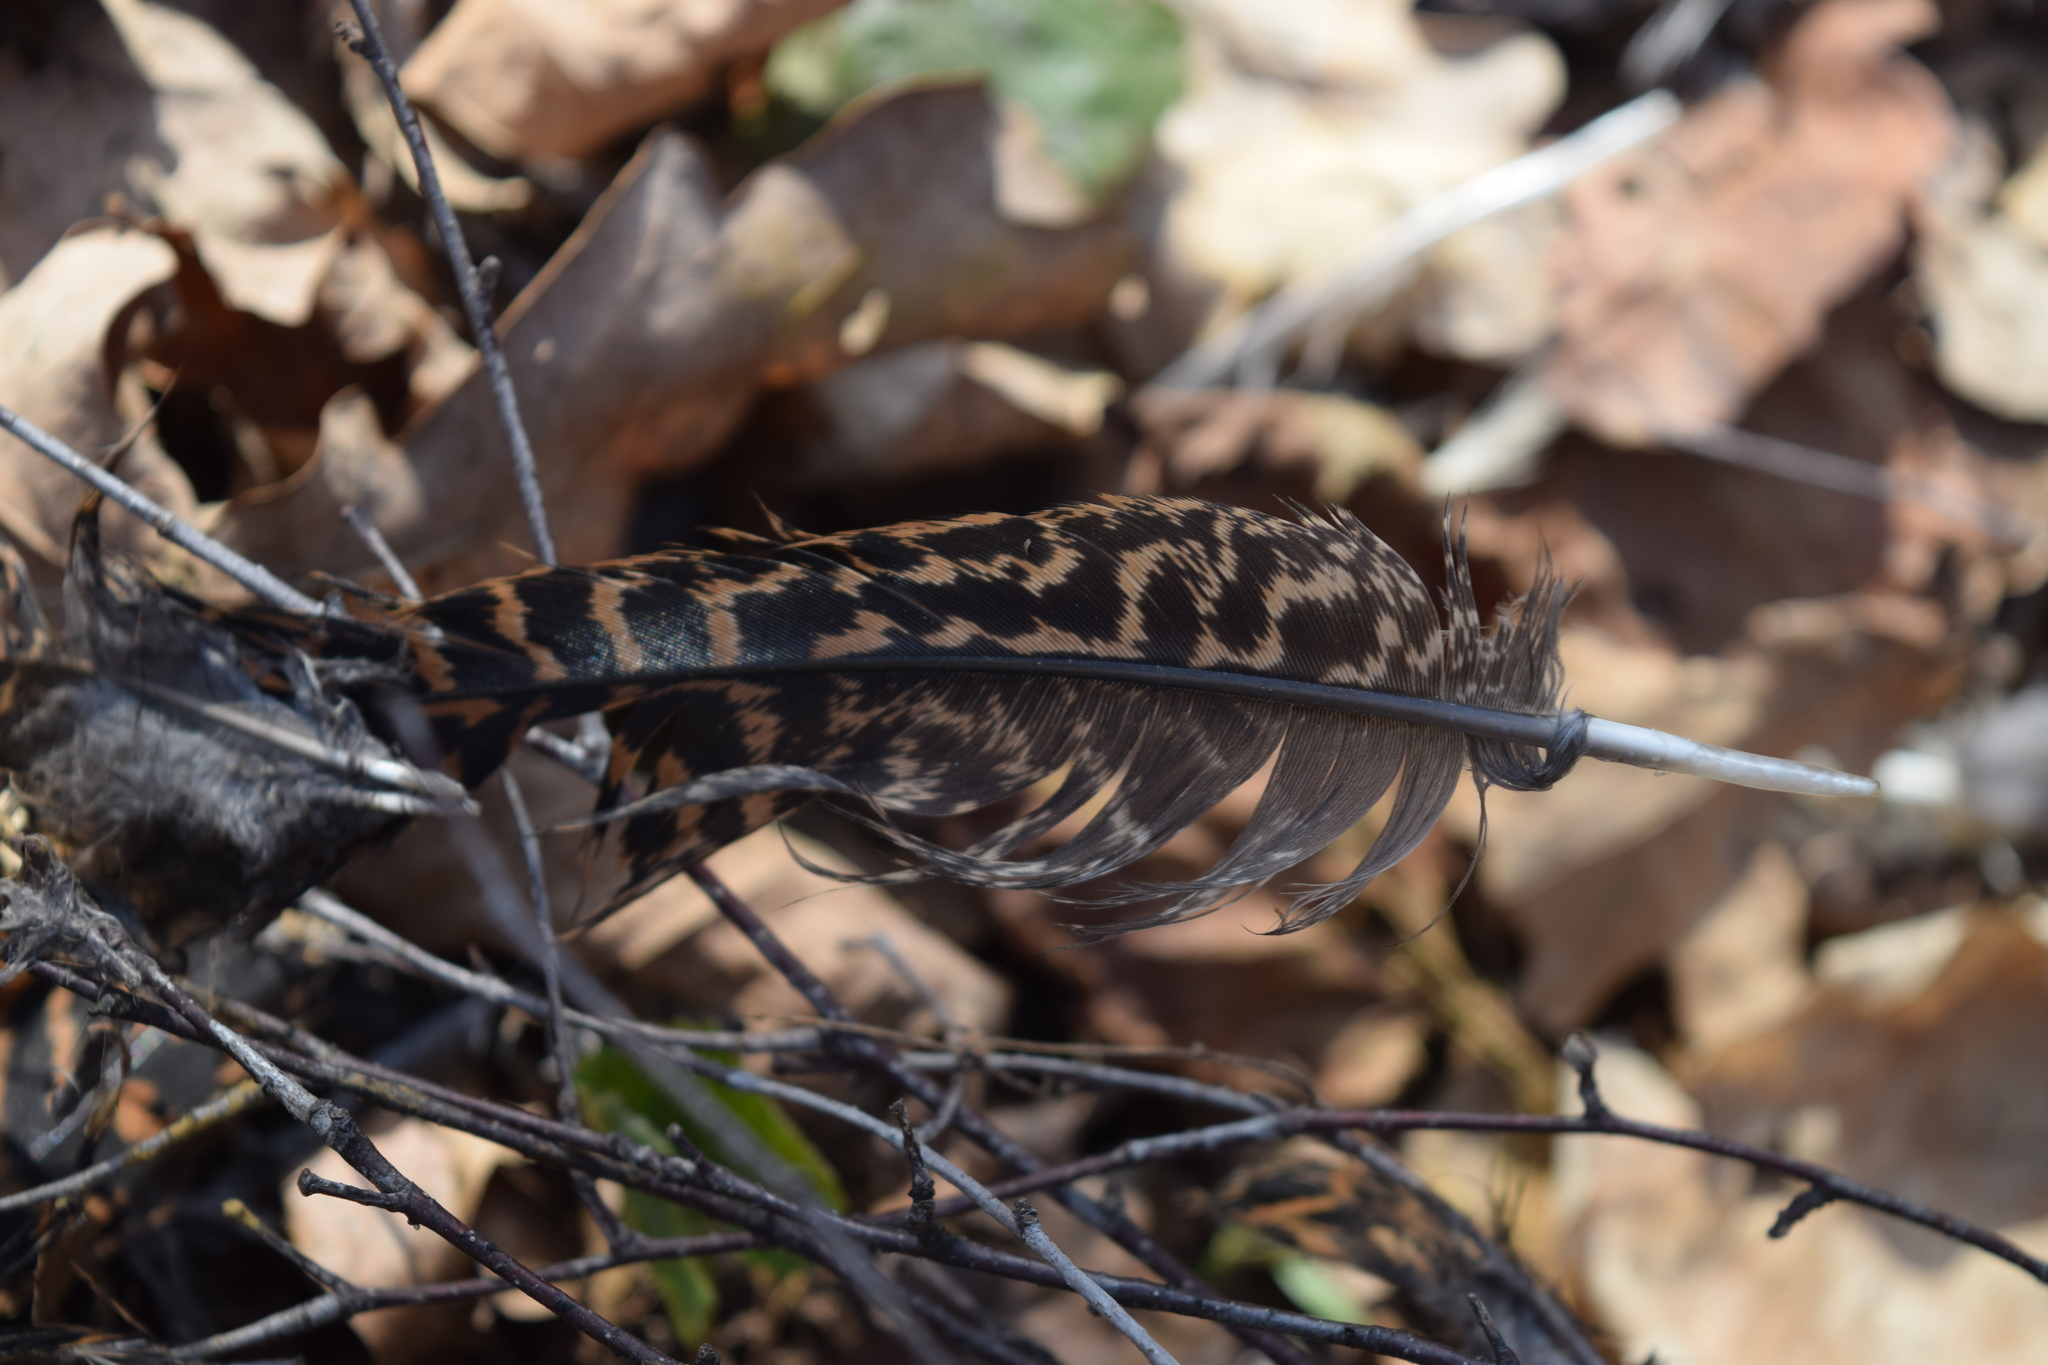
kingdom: Animalia
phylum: Chordata
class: Aves
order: Galliformes
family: Phasianidae
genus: Lyrurus
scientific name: Lyrurus tetrix
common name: Black grouse
